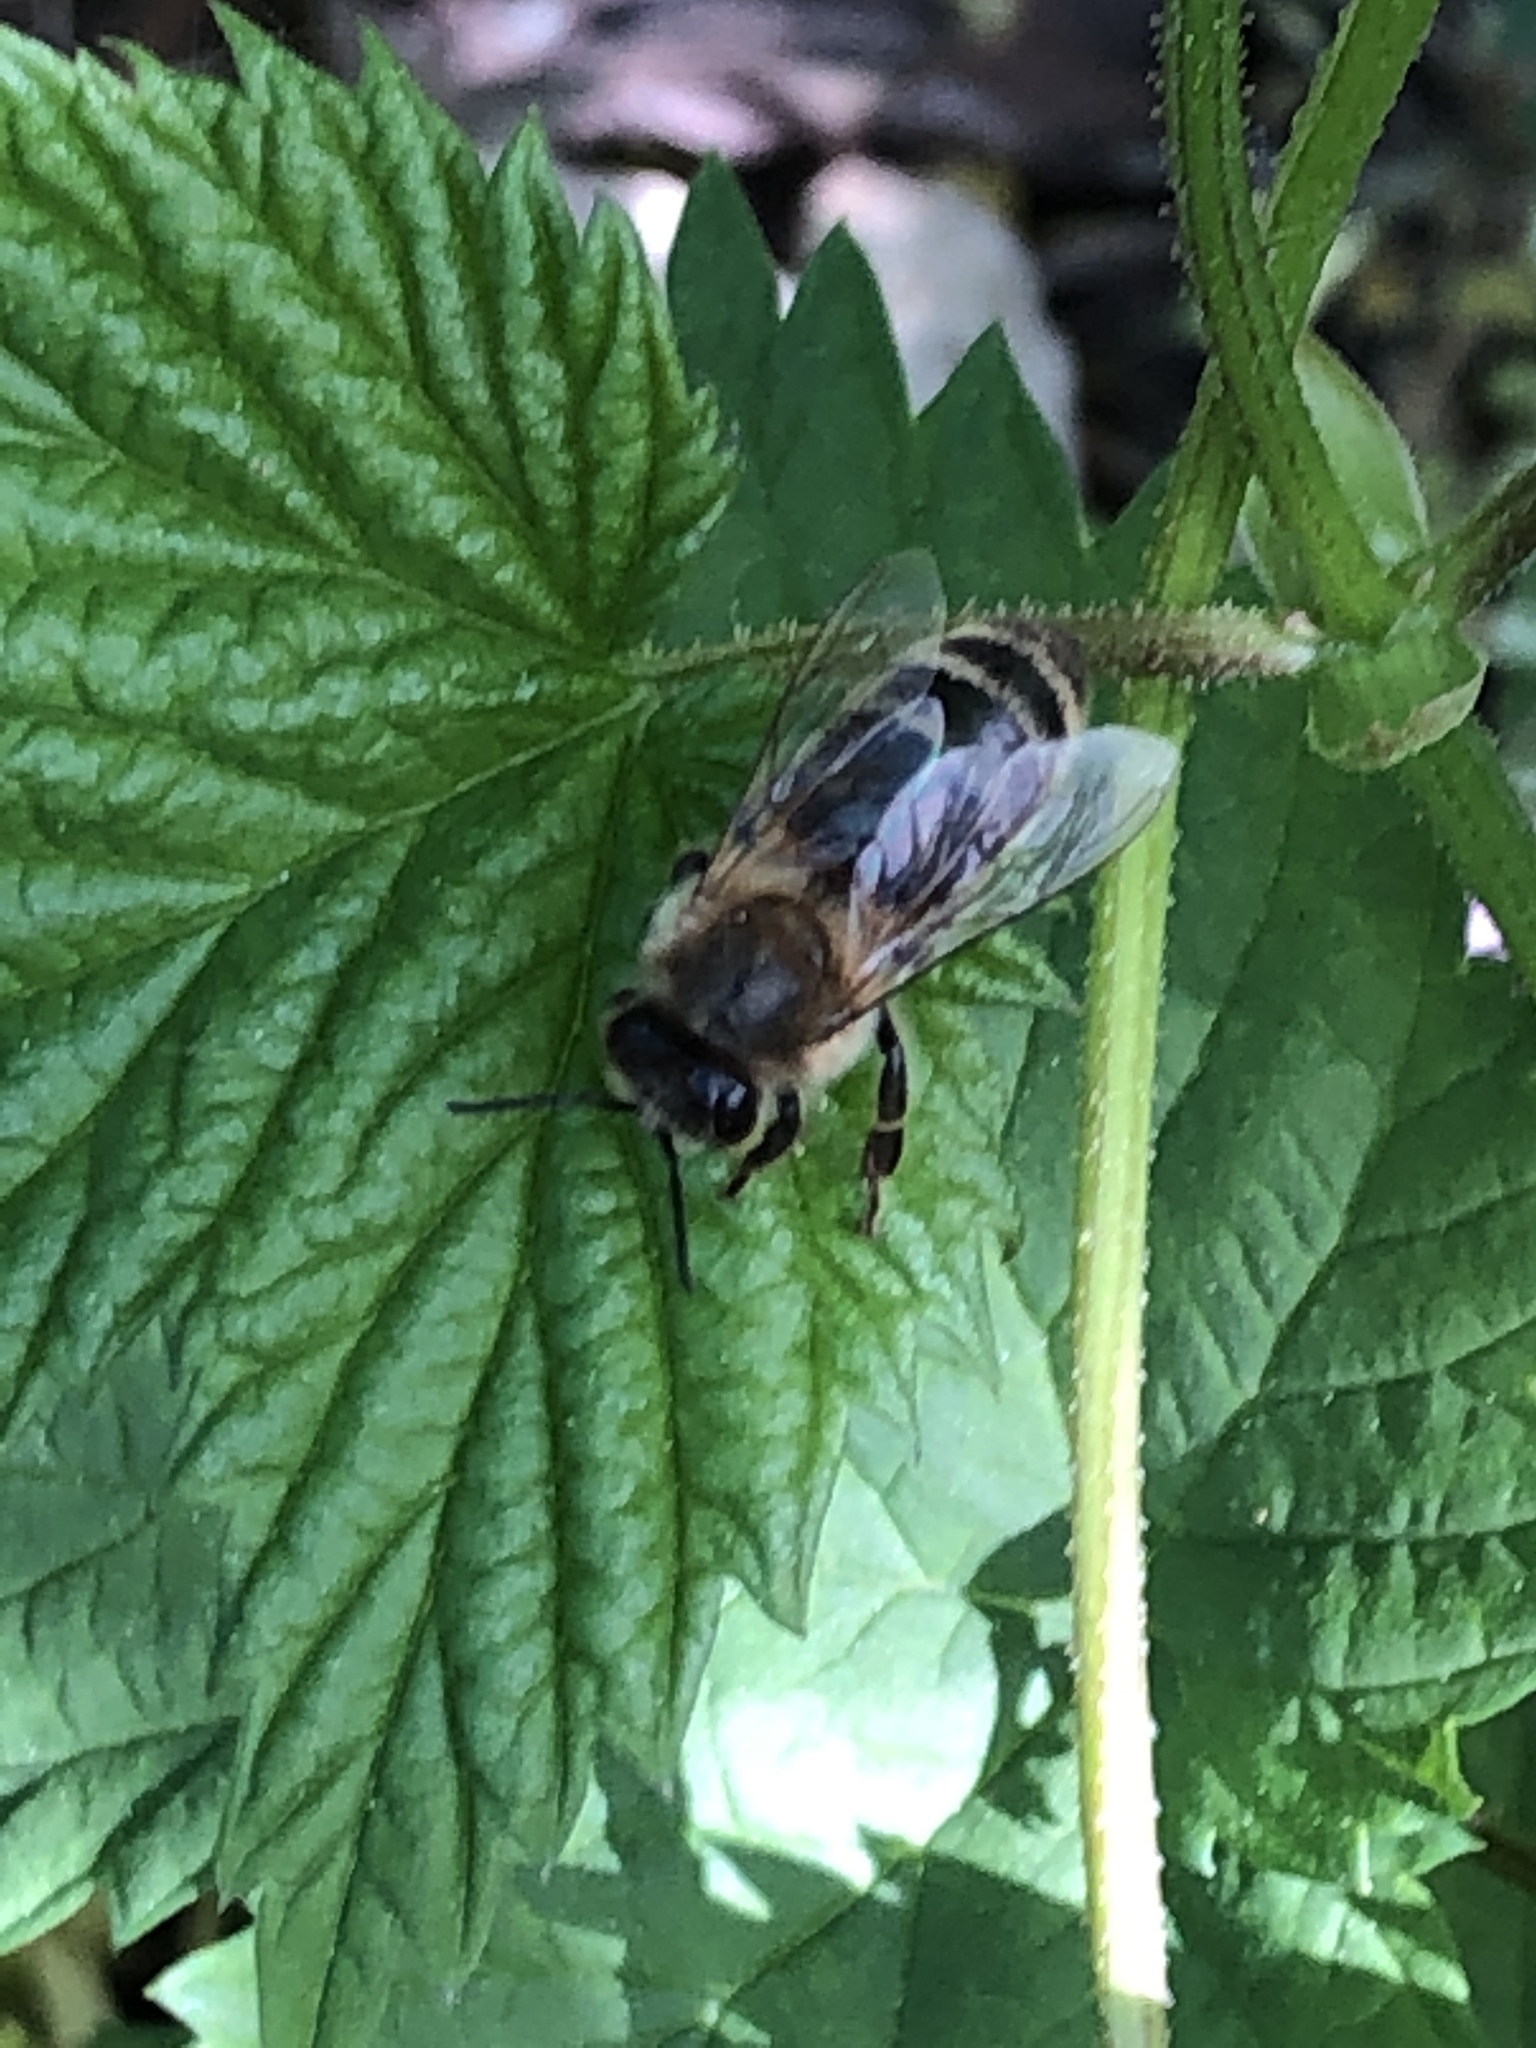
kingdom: Animalia
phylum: Arthropoda
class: Insecta
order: Hymenoptera
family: Apidae
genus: Apis
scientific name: Apis mellifera
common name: Honey bee
